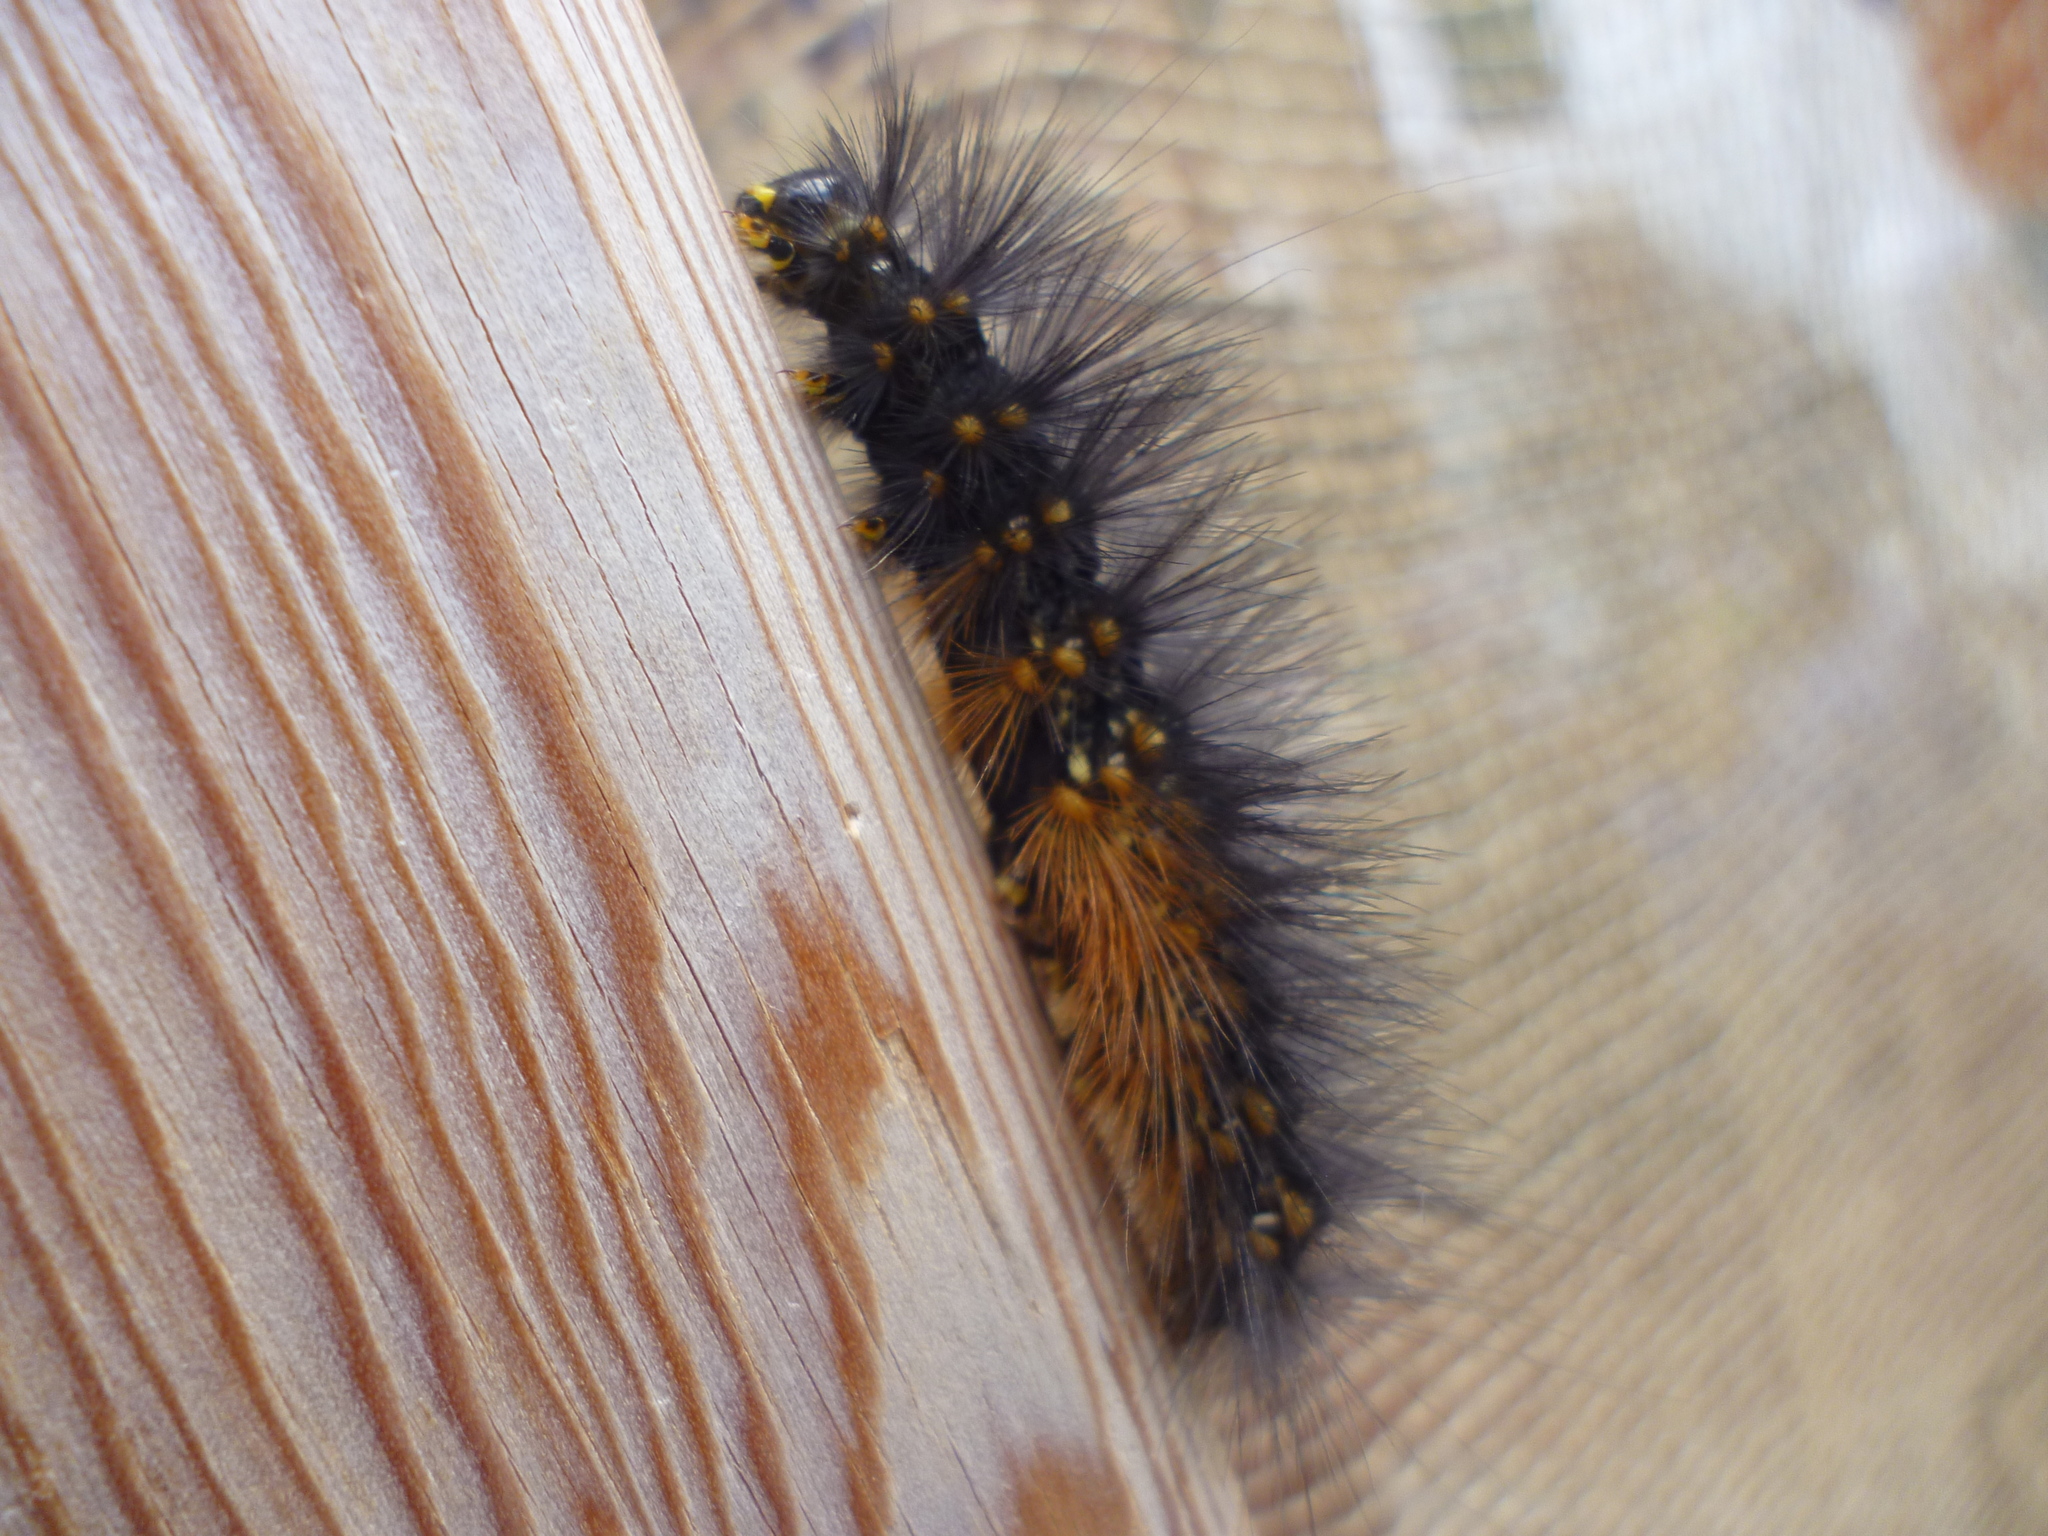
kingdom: Animalia
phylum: Arthropoda
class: Insecta
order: Lepidoptera
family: Erebidae
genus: Estigmene
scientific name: Estigmene acrea
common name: Salt marsh moth
